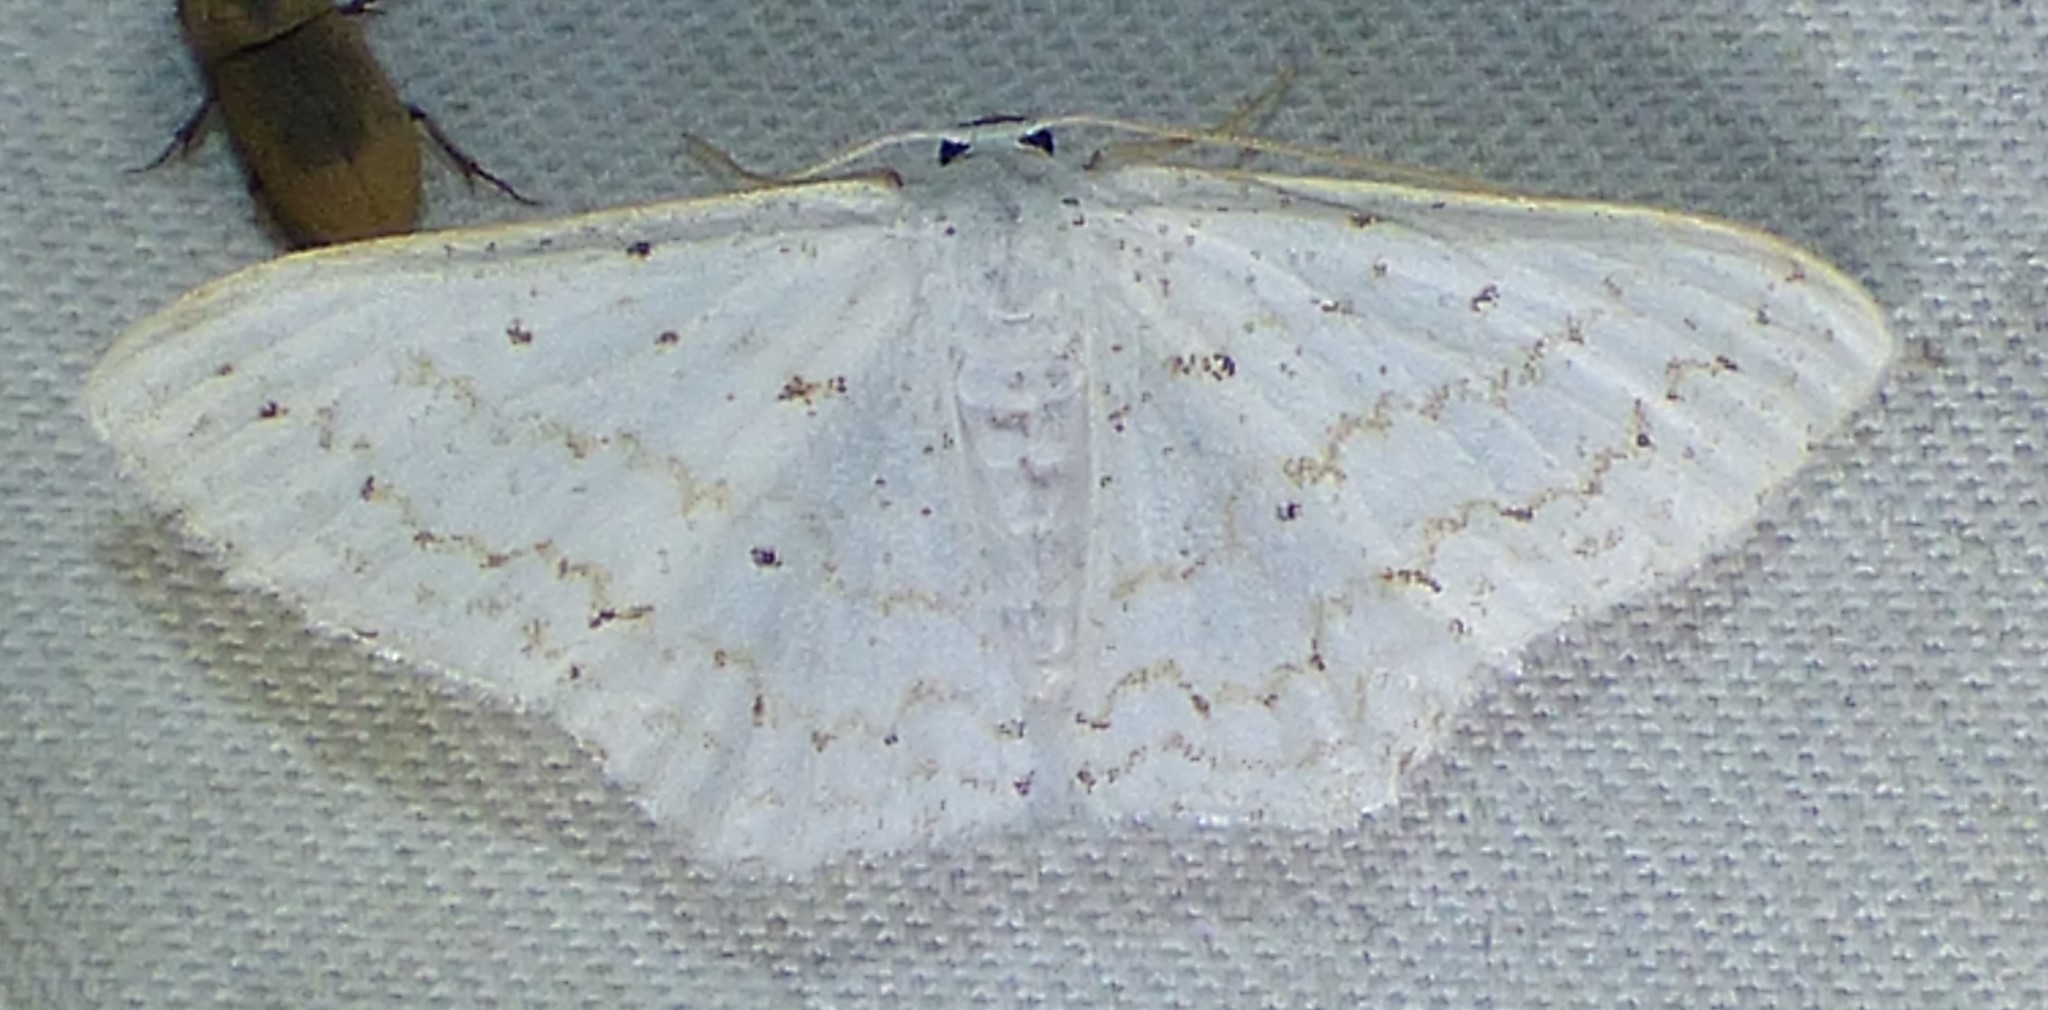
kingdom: Animalia
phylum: Arthropoda
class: Insecta
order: Lepidoptera
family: Geometridae
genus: Idaea
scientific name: Idaea tacturata
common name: Dot-lined wave
